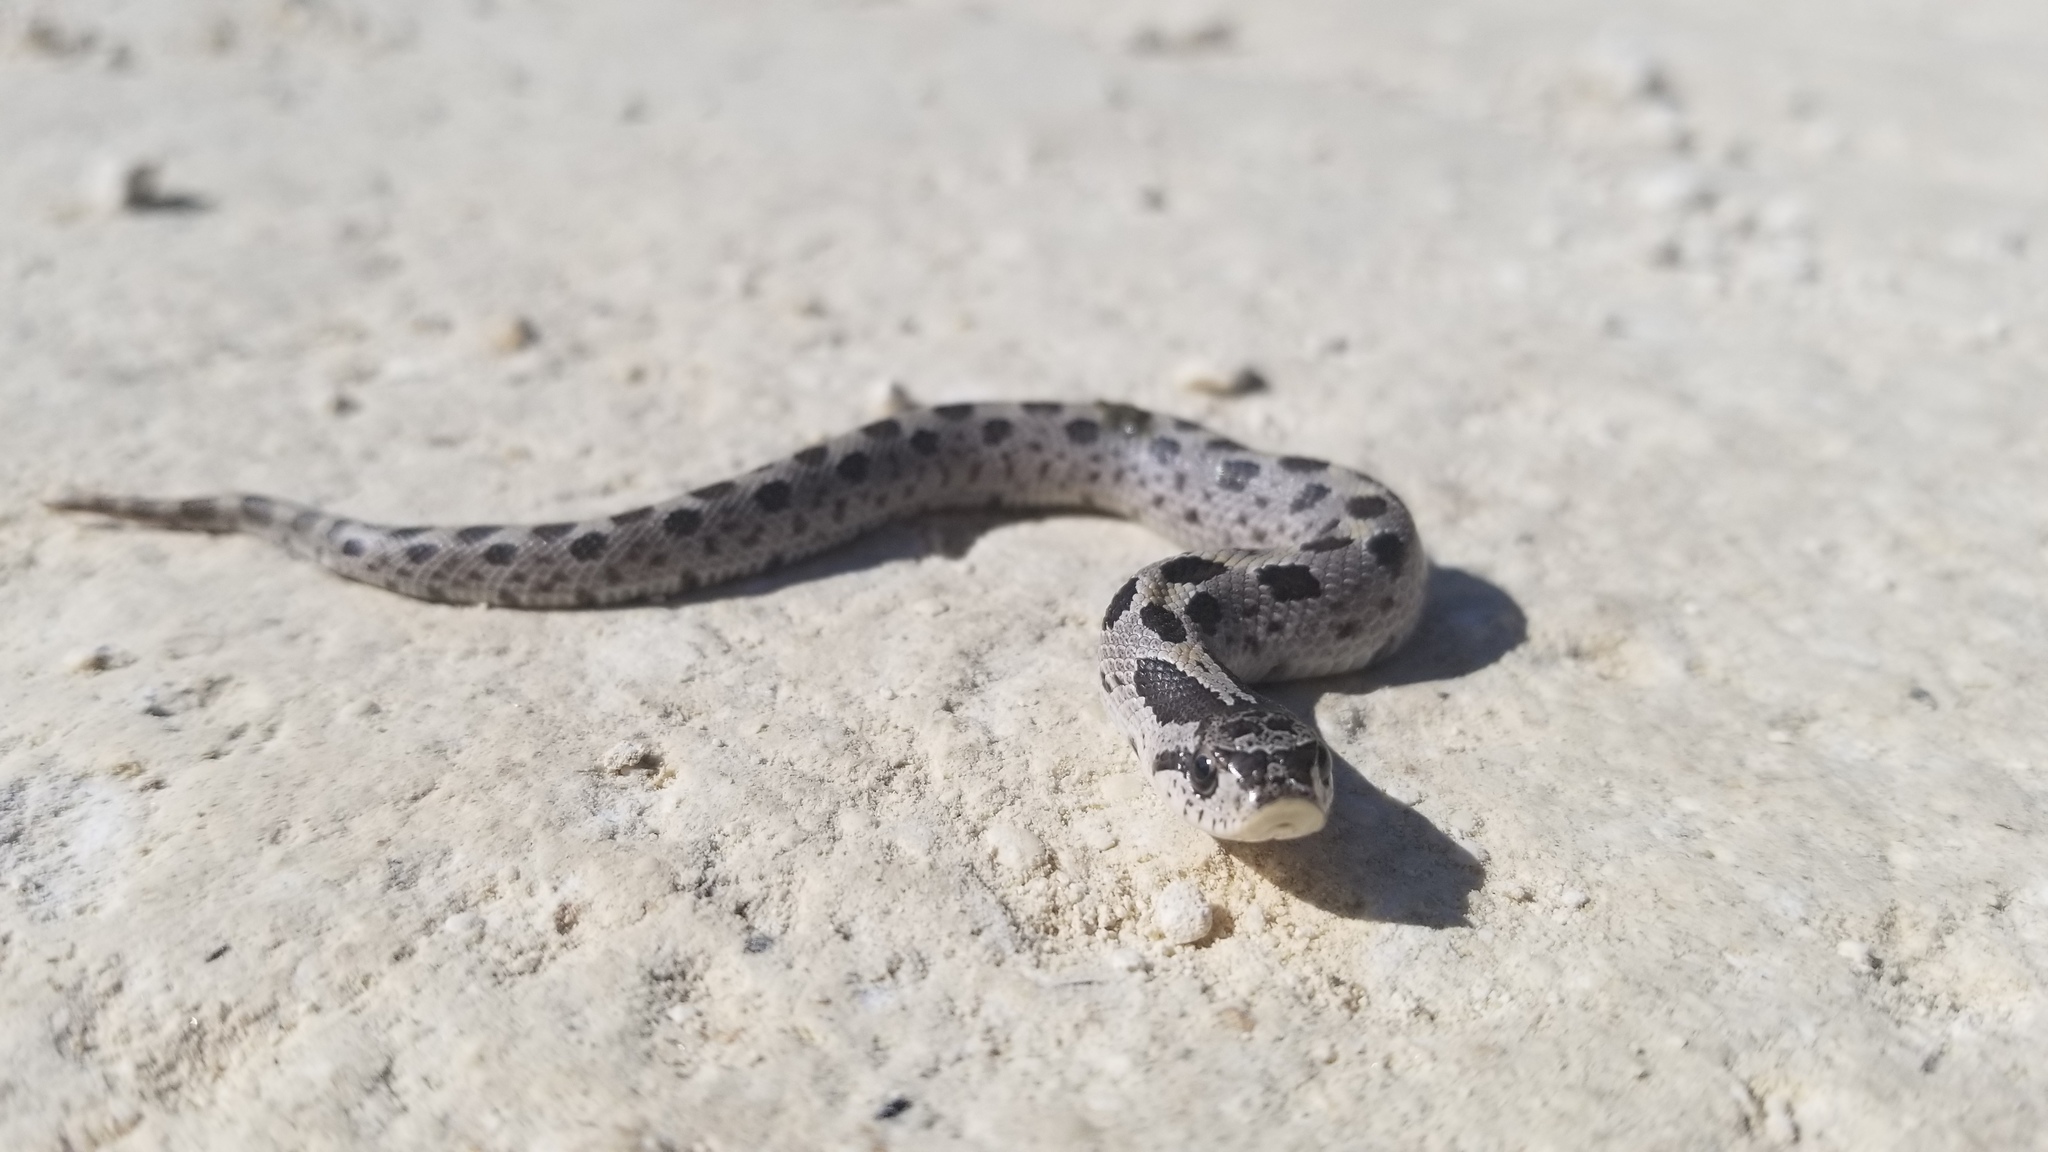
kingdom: Animalia
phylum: Chordata
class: Squamata
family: Colubridae
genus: Heterodon
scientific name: Heterodon simus
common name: Southern hognose snake
